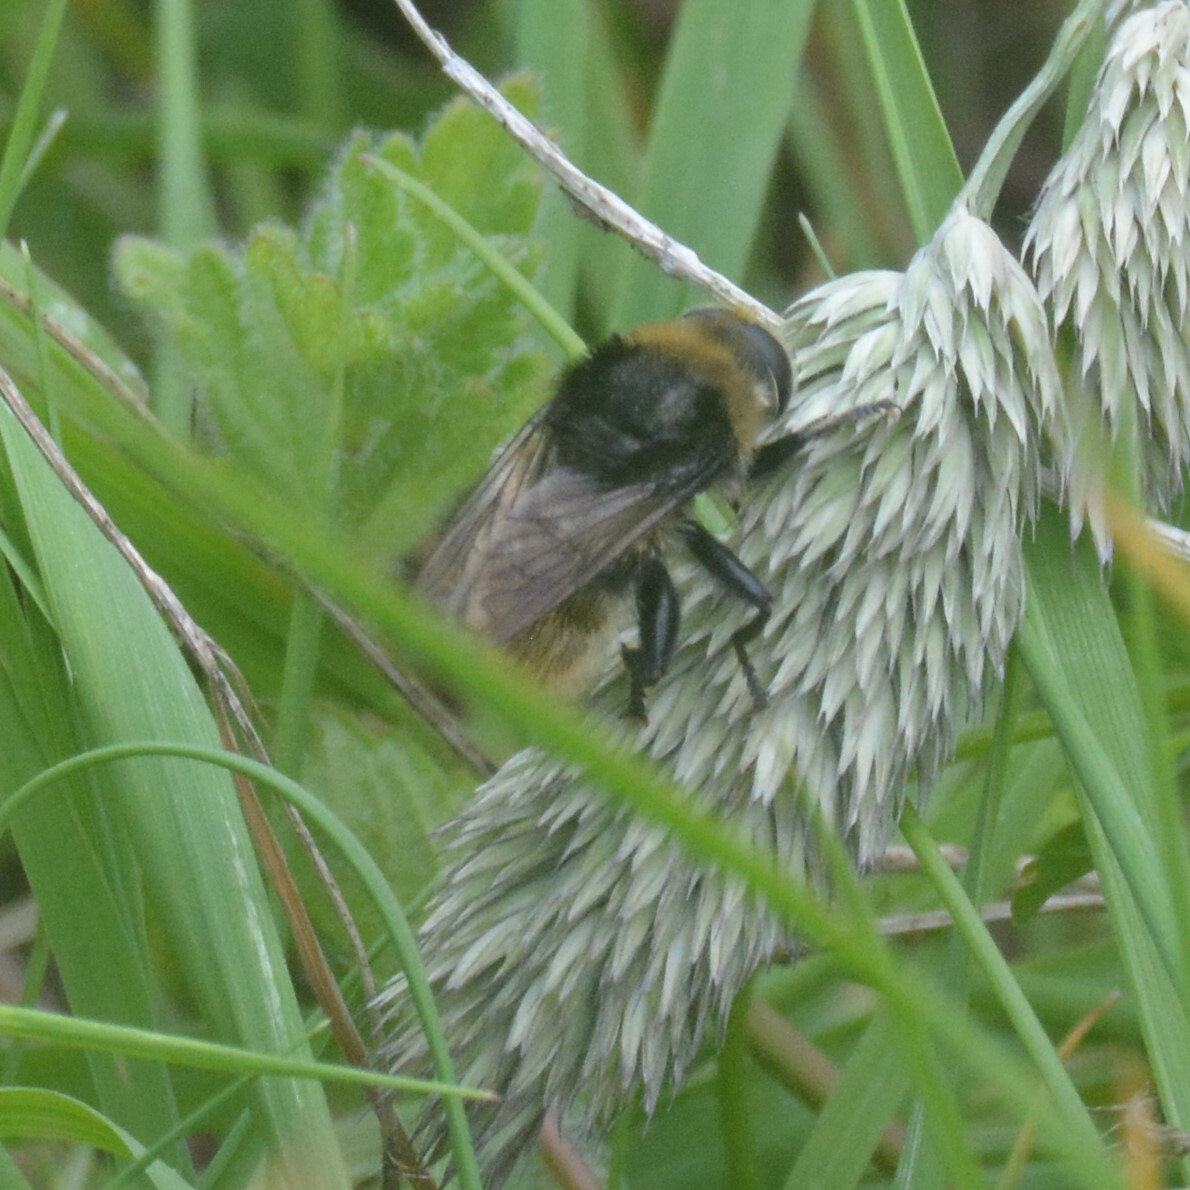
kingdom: Animalia
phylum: Arthropoda
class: Insecta
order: Diptera
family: Syrphidae
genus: Merodon
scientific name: Merodon equestris
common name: Greater bulb-fly
